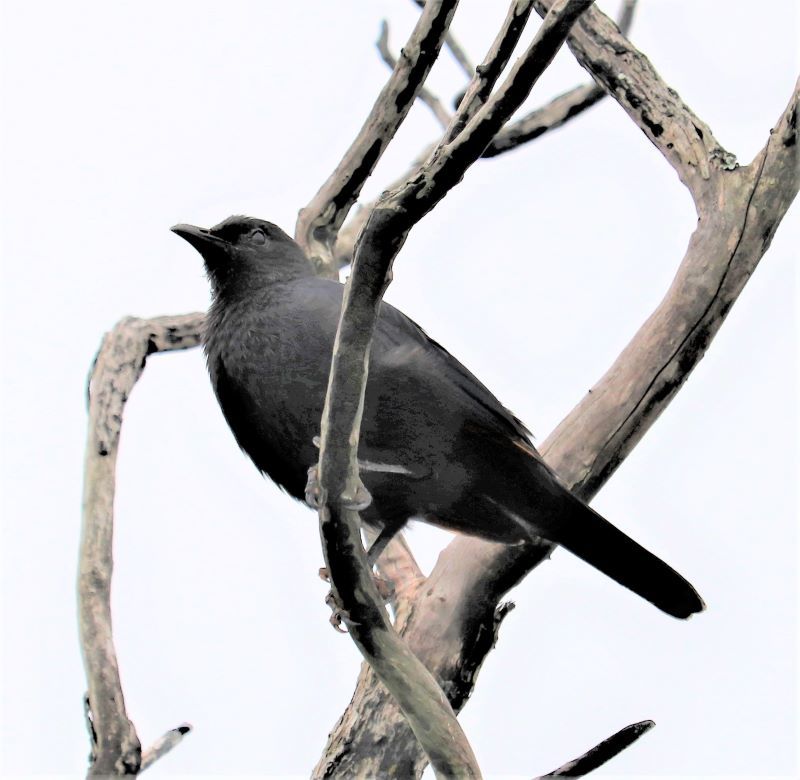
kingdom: Animalia
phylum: Chordata
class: Aves
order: Passeriformes
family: Sturnidae
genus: Onychognathus
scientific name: Onychognathus morio
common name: Red-winged starling
